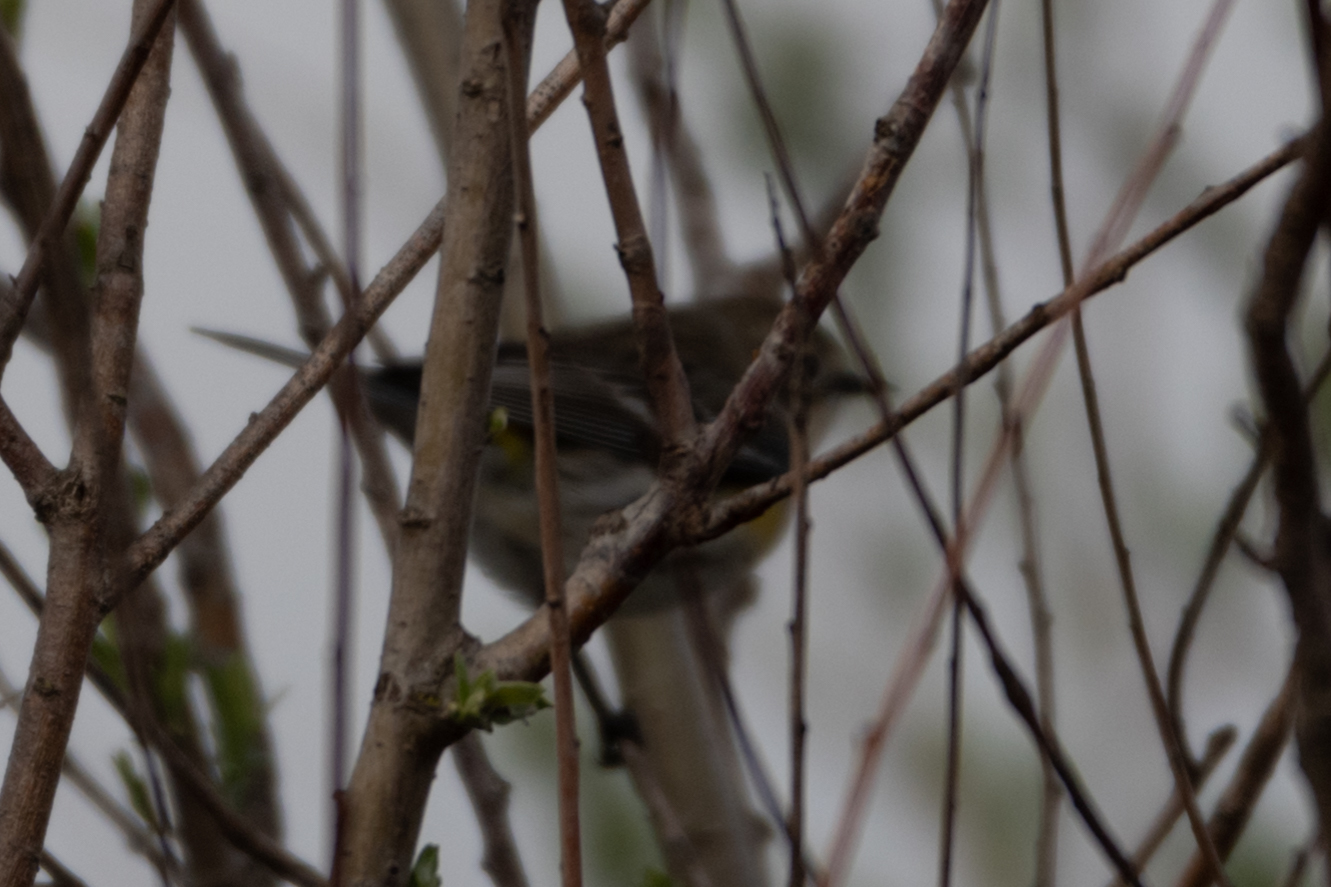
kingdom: Animalia
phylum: Chordata
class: Aves
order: Passeriformes
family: Parulidae
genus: Setophaga
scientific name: Setophaga coronata
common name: Myrtle warbler
